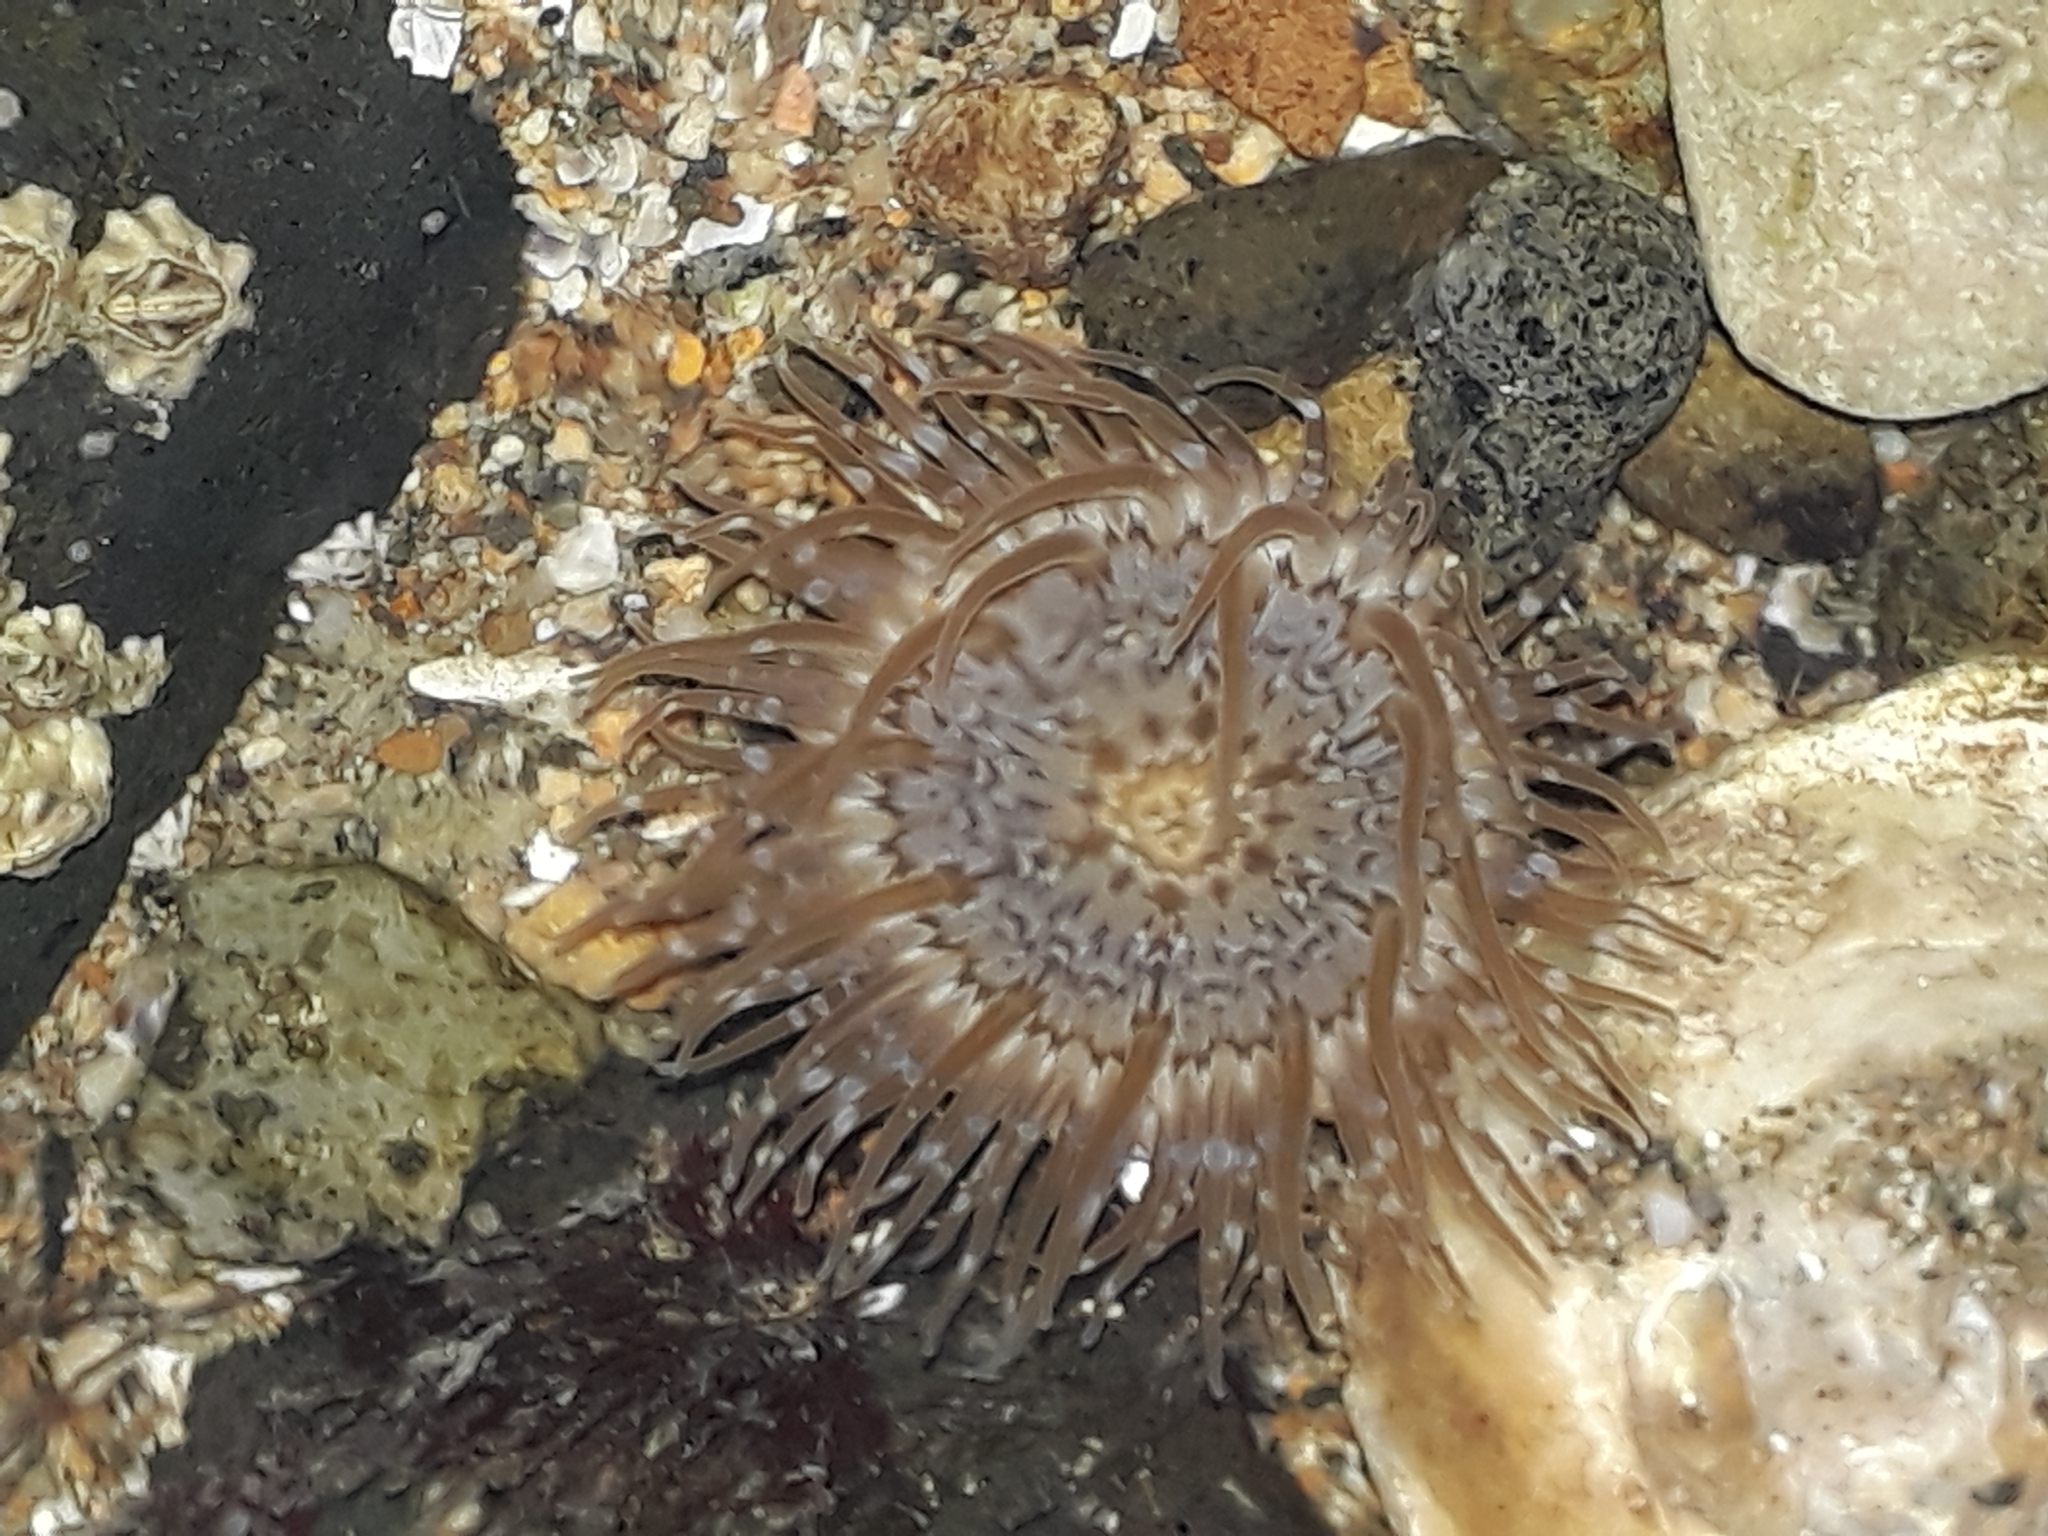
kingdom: Animalia
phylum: Cnidaria
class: Anthozoa
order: Actiniaria
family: Actiniidae
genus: Anthopleura
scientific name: Anthopleura hermaphroditica
